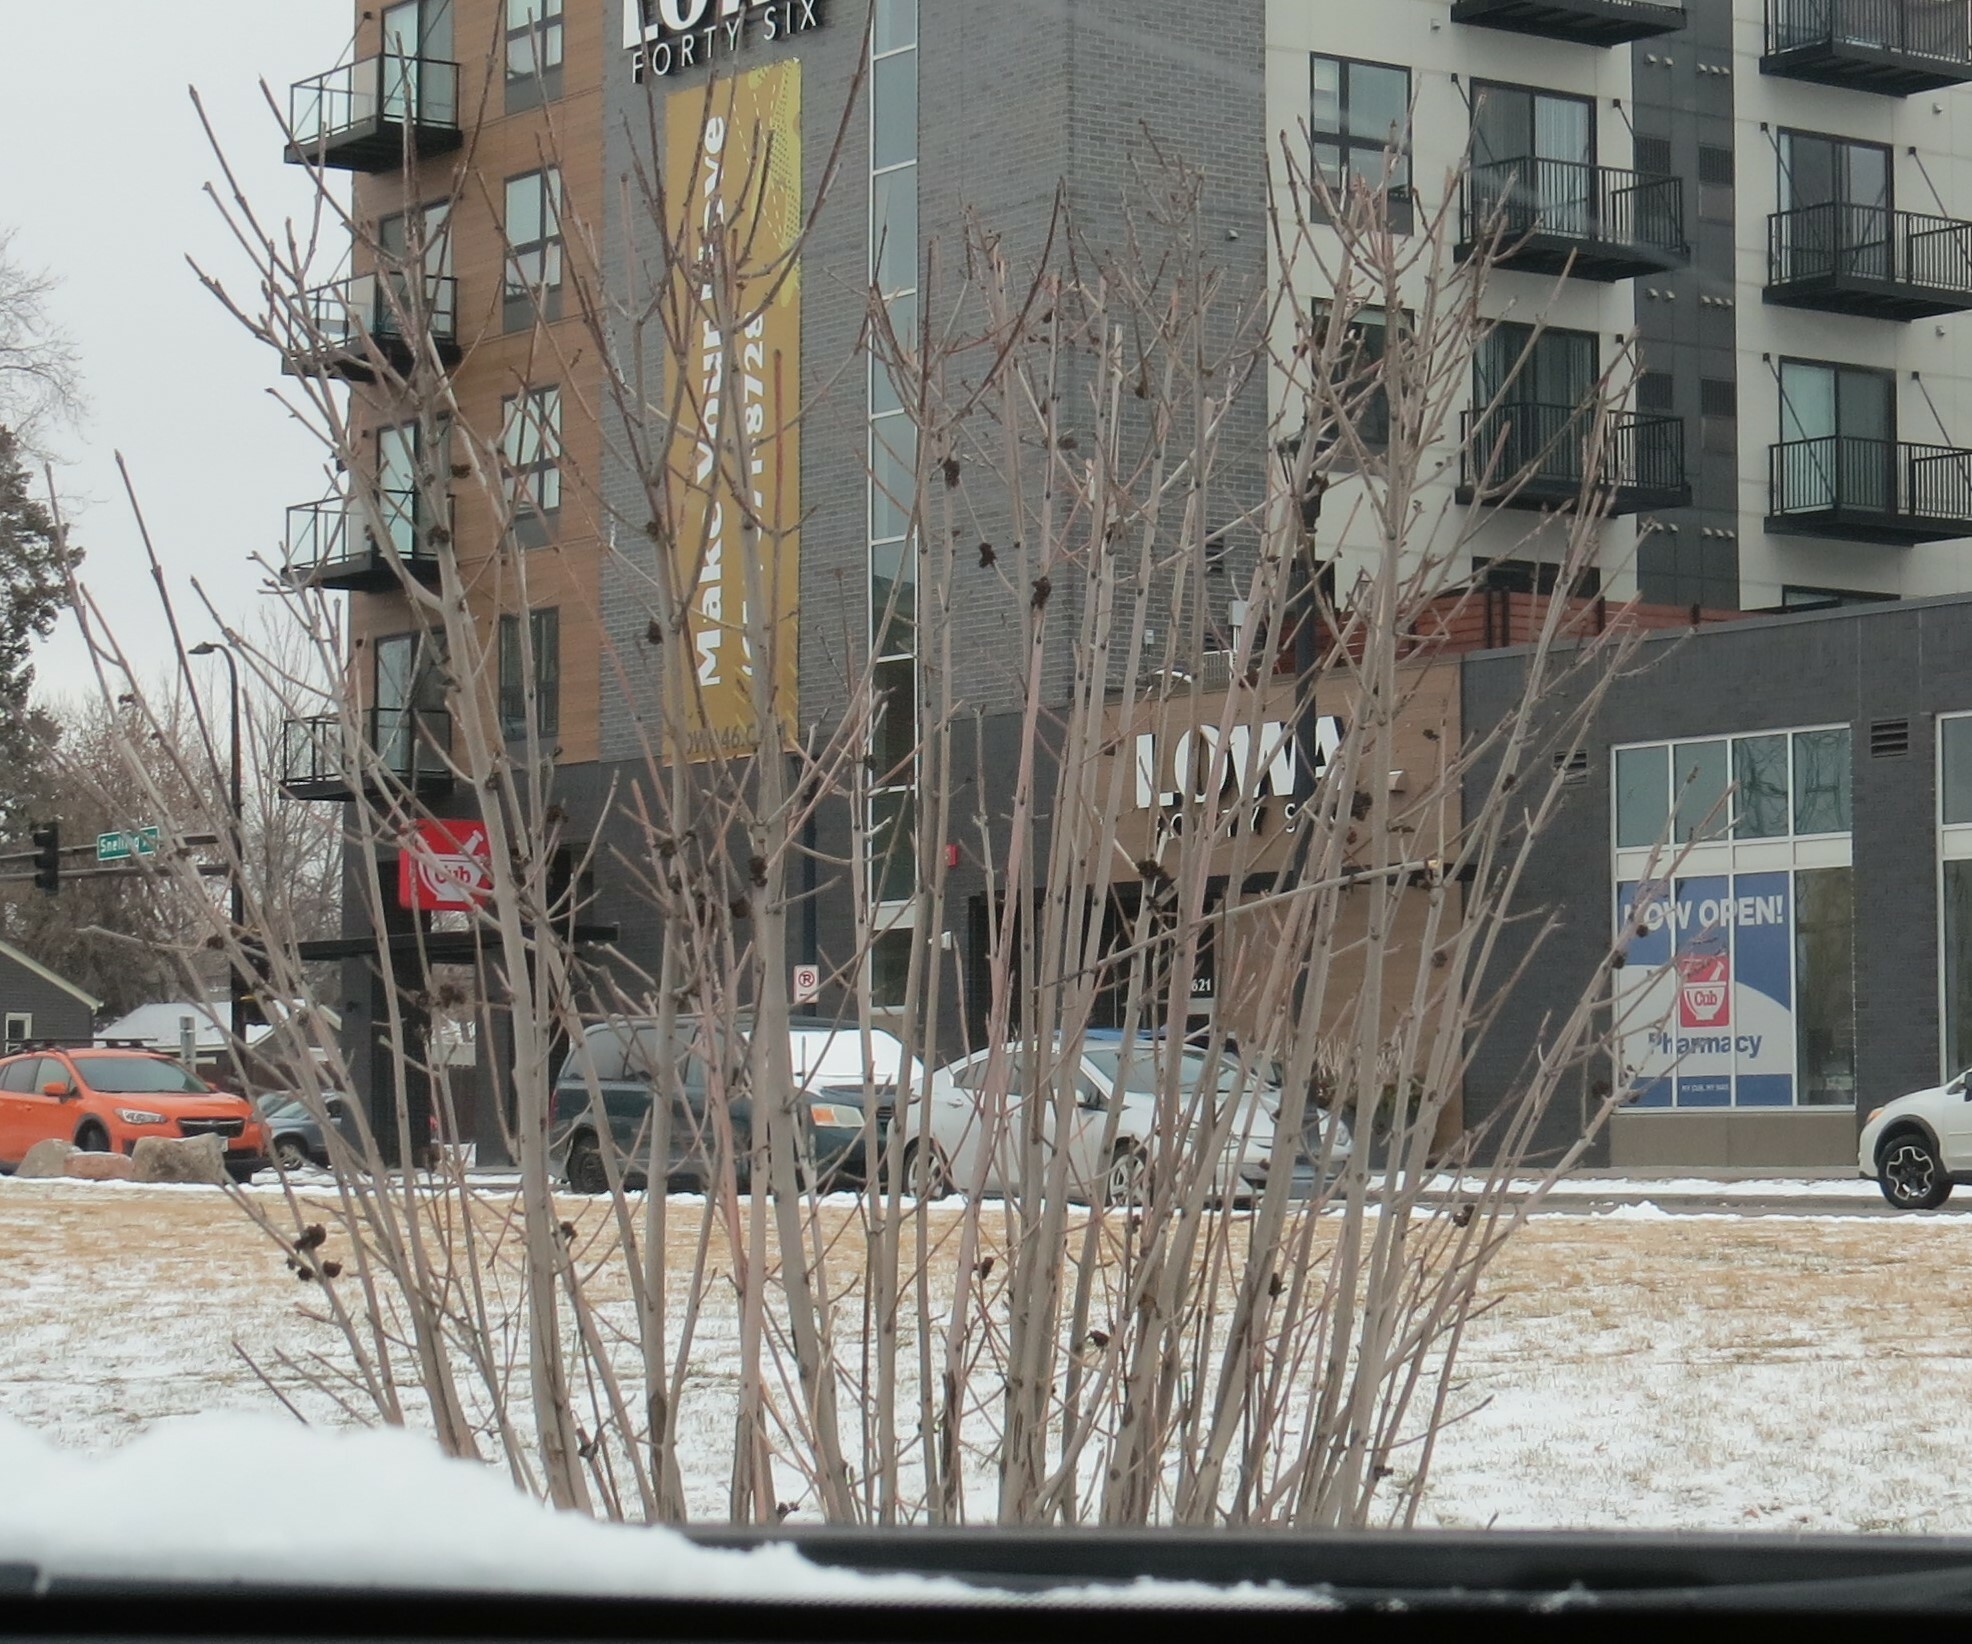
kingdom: Animalia
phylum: Arthropoda
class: Arachnida
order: Trombidiformes
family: Eriophyidae
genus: Aceria
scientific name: Aceria fraxiniflora
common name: Ash flower gall mite
